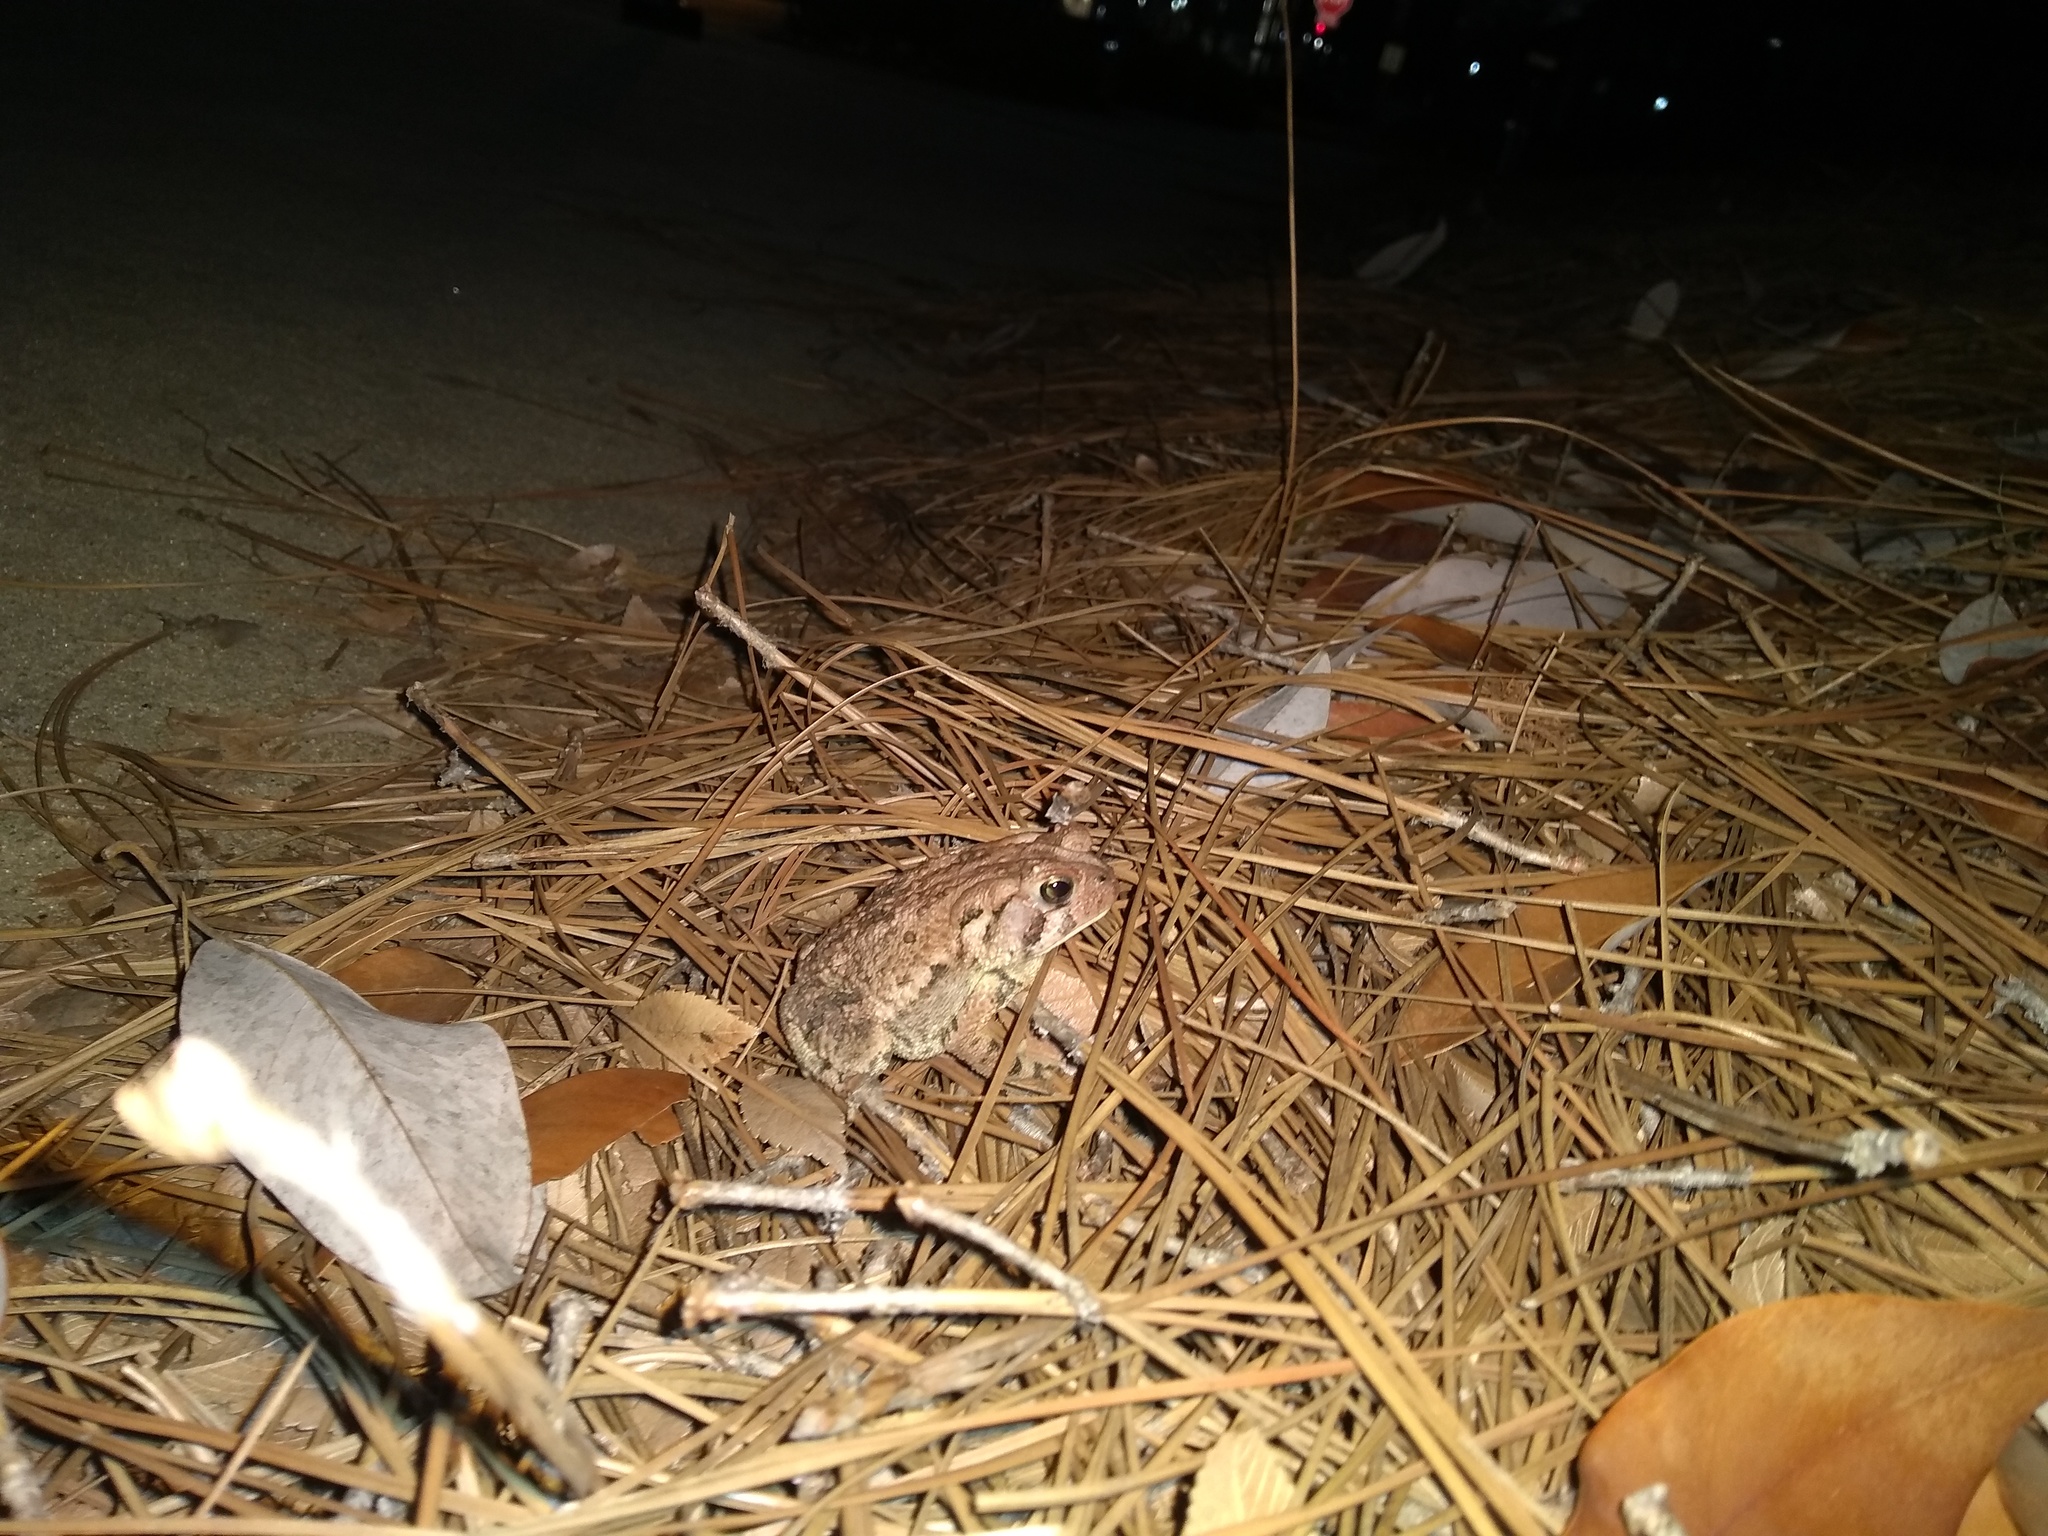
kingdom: Animalia
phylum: Chordata
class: Amphibia
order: Anura
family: Bufonidae
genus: Anaxyrus
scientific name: Anaxyrus fowleri
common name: Fowler's toad
